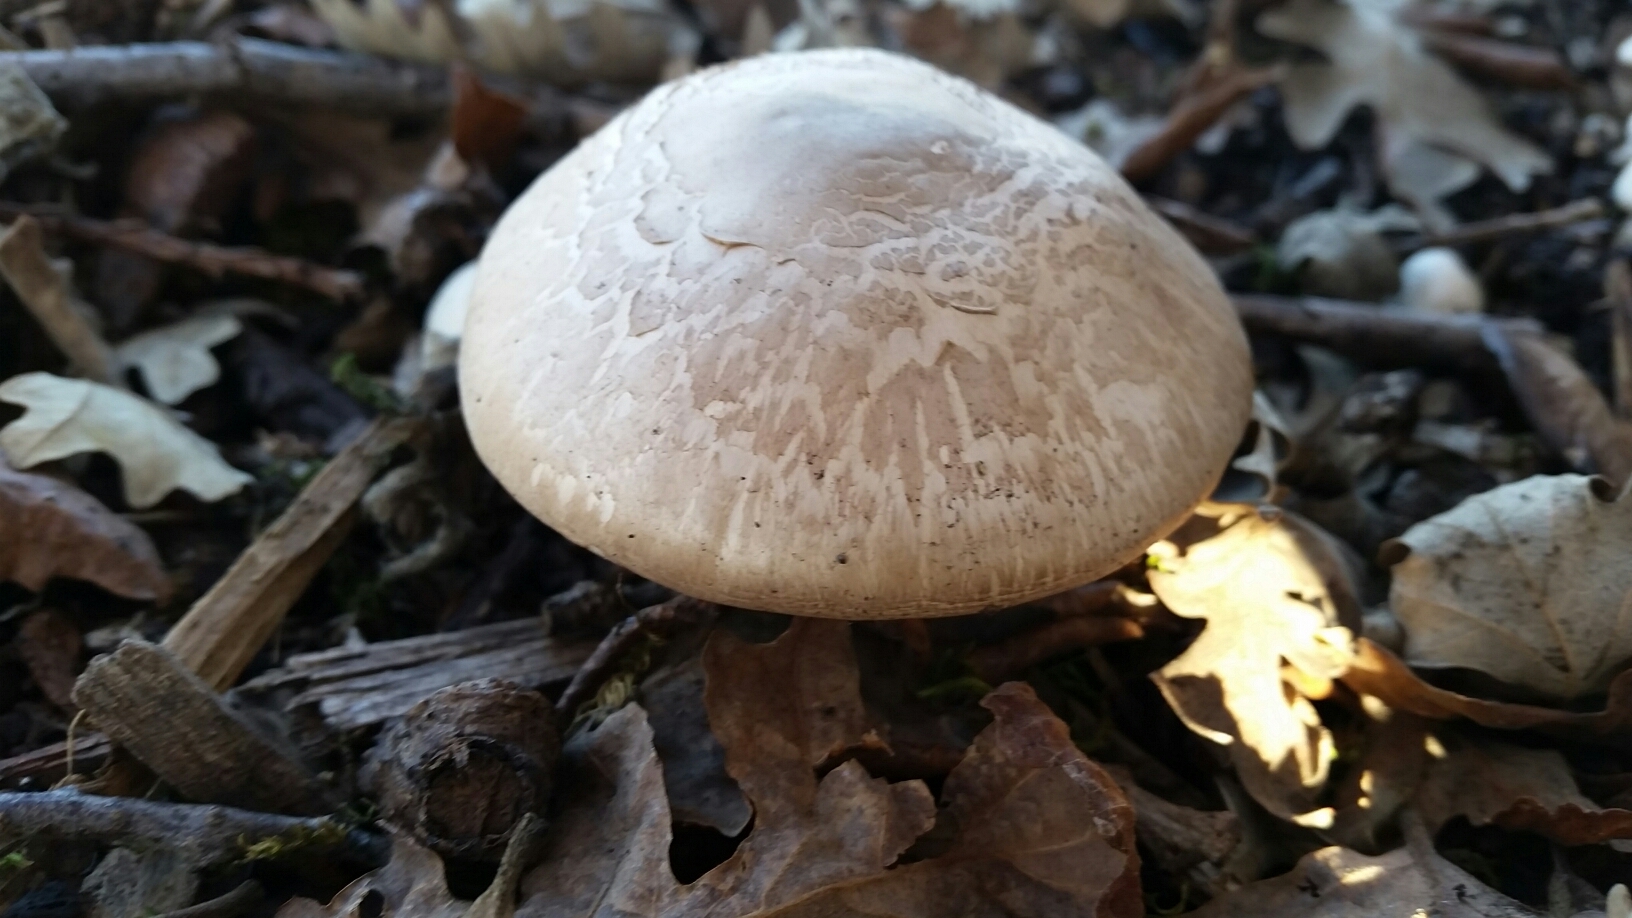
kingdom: Fungi
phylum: Basidiomycota
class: Agaricomycetes
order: Agaricales
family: Agaricaceae
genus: Agaricus
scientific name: Agaricus californicus
